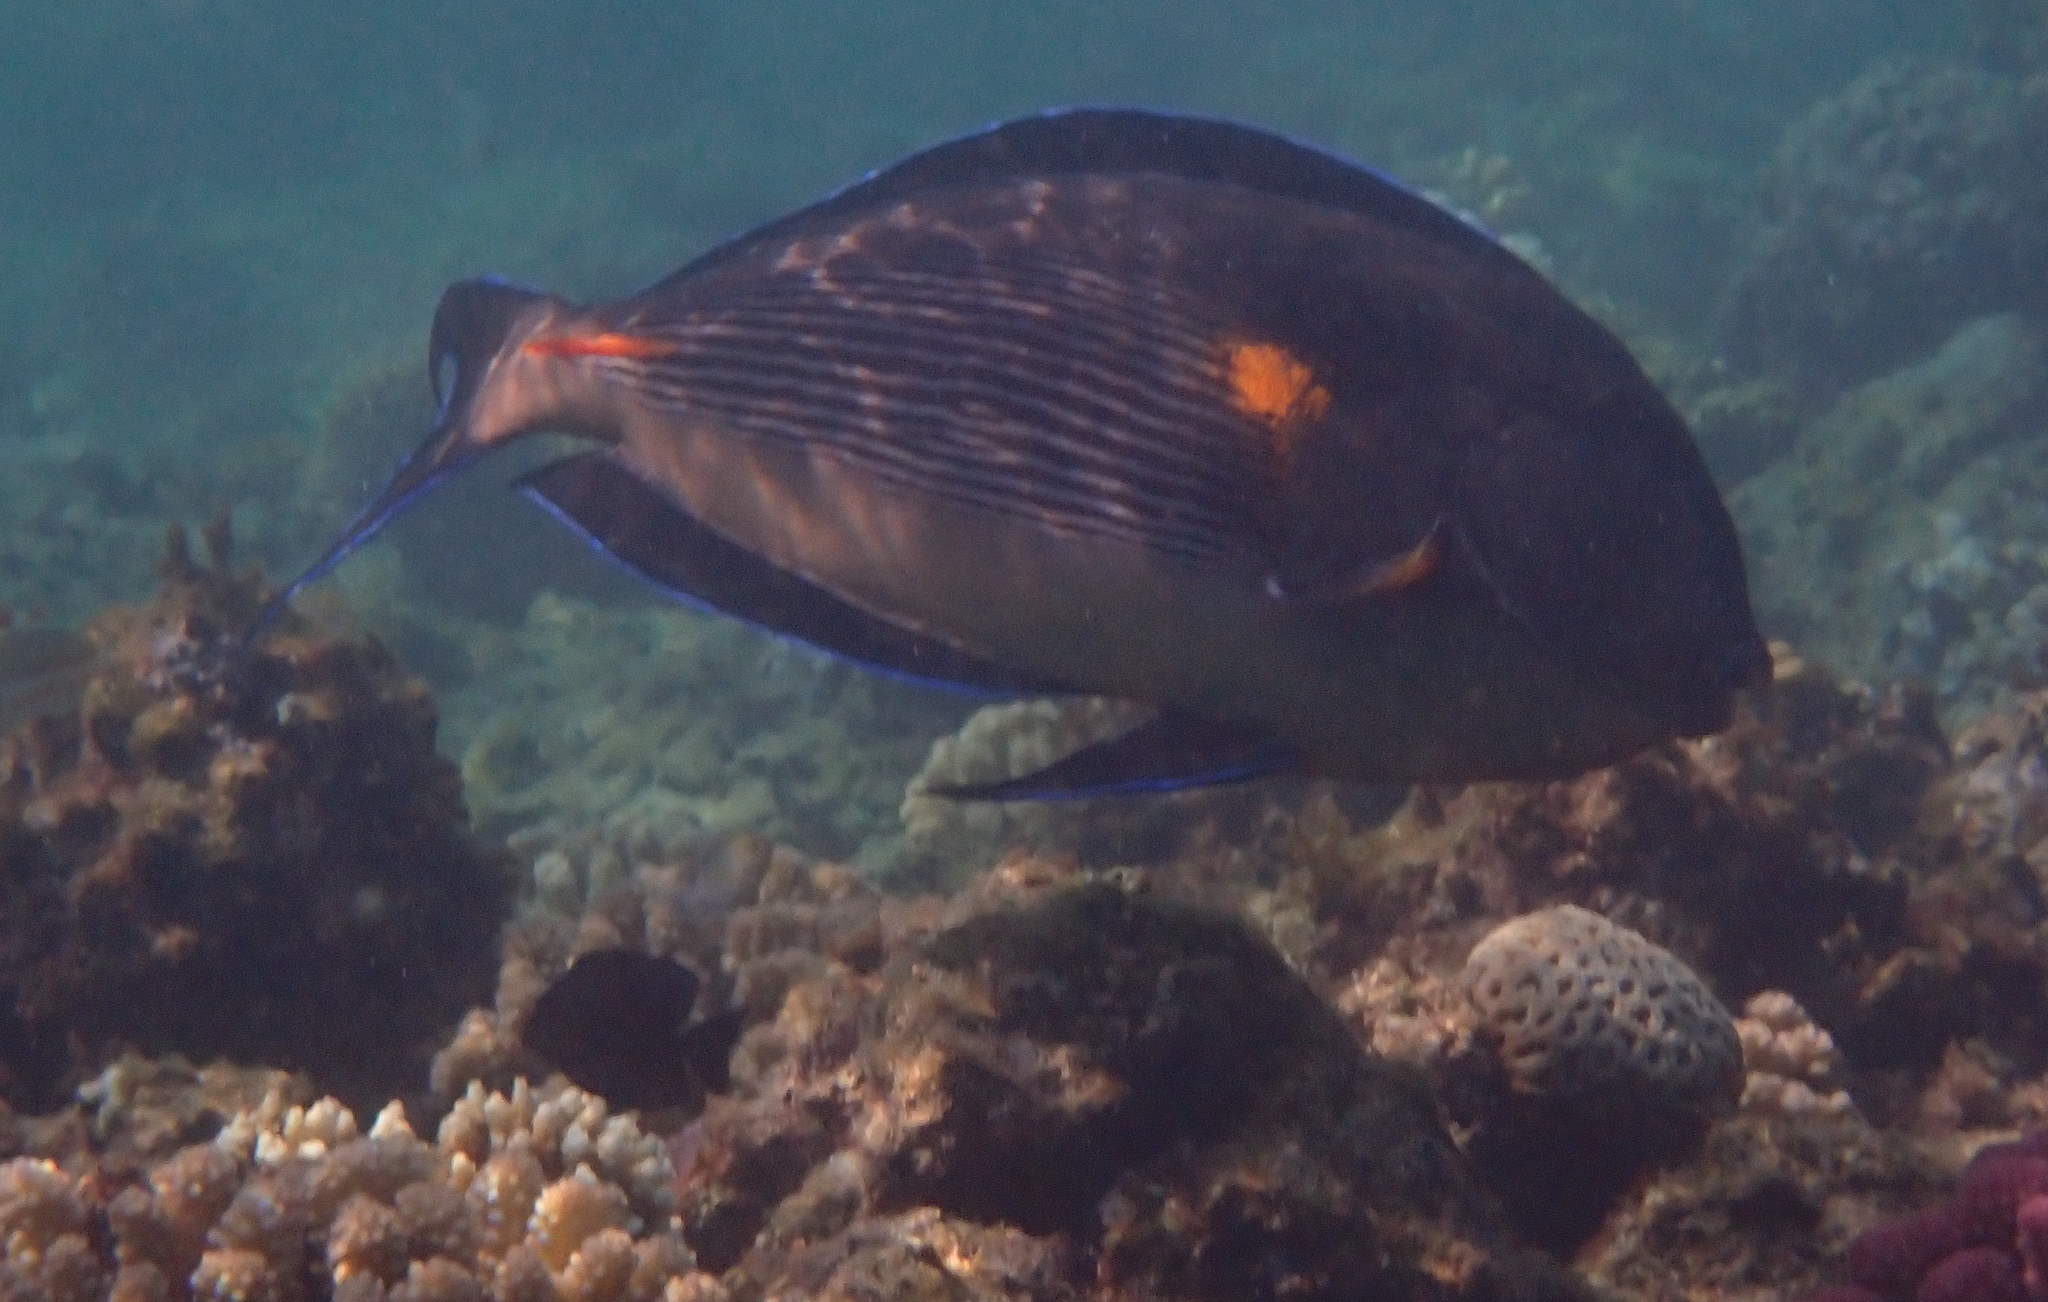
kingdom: Animalia
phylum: Chordata
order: Perciformes
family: Acanthuridae
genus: Acanthurus
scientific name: Acanthurus sohal
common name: Red sea surgeonfish
